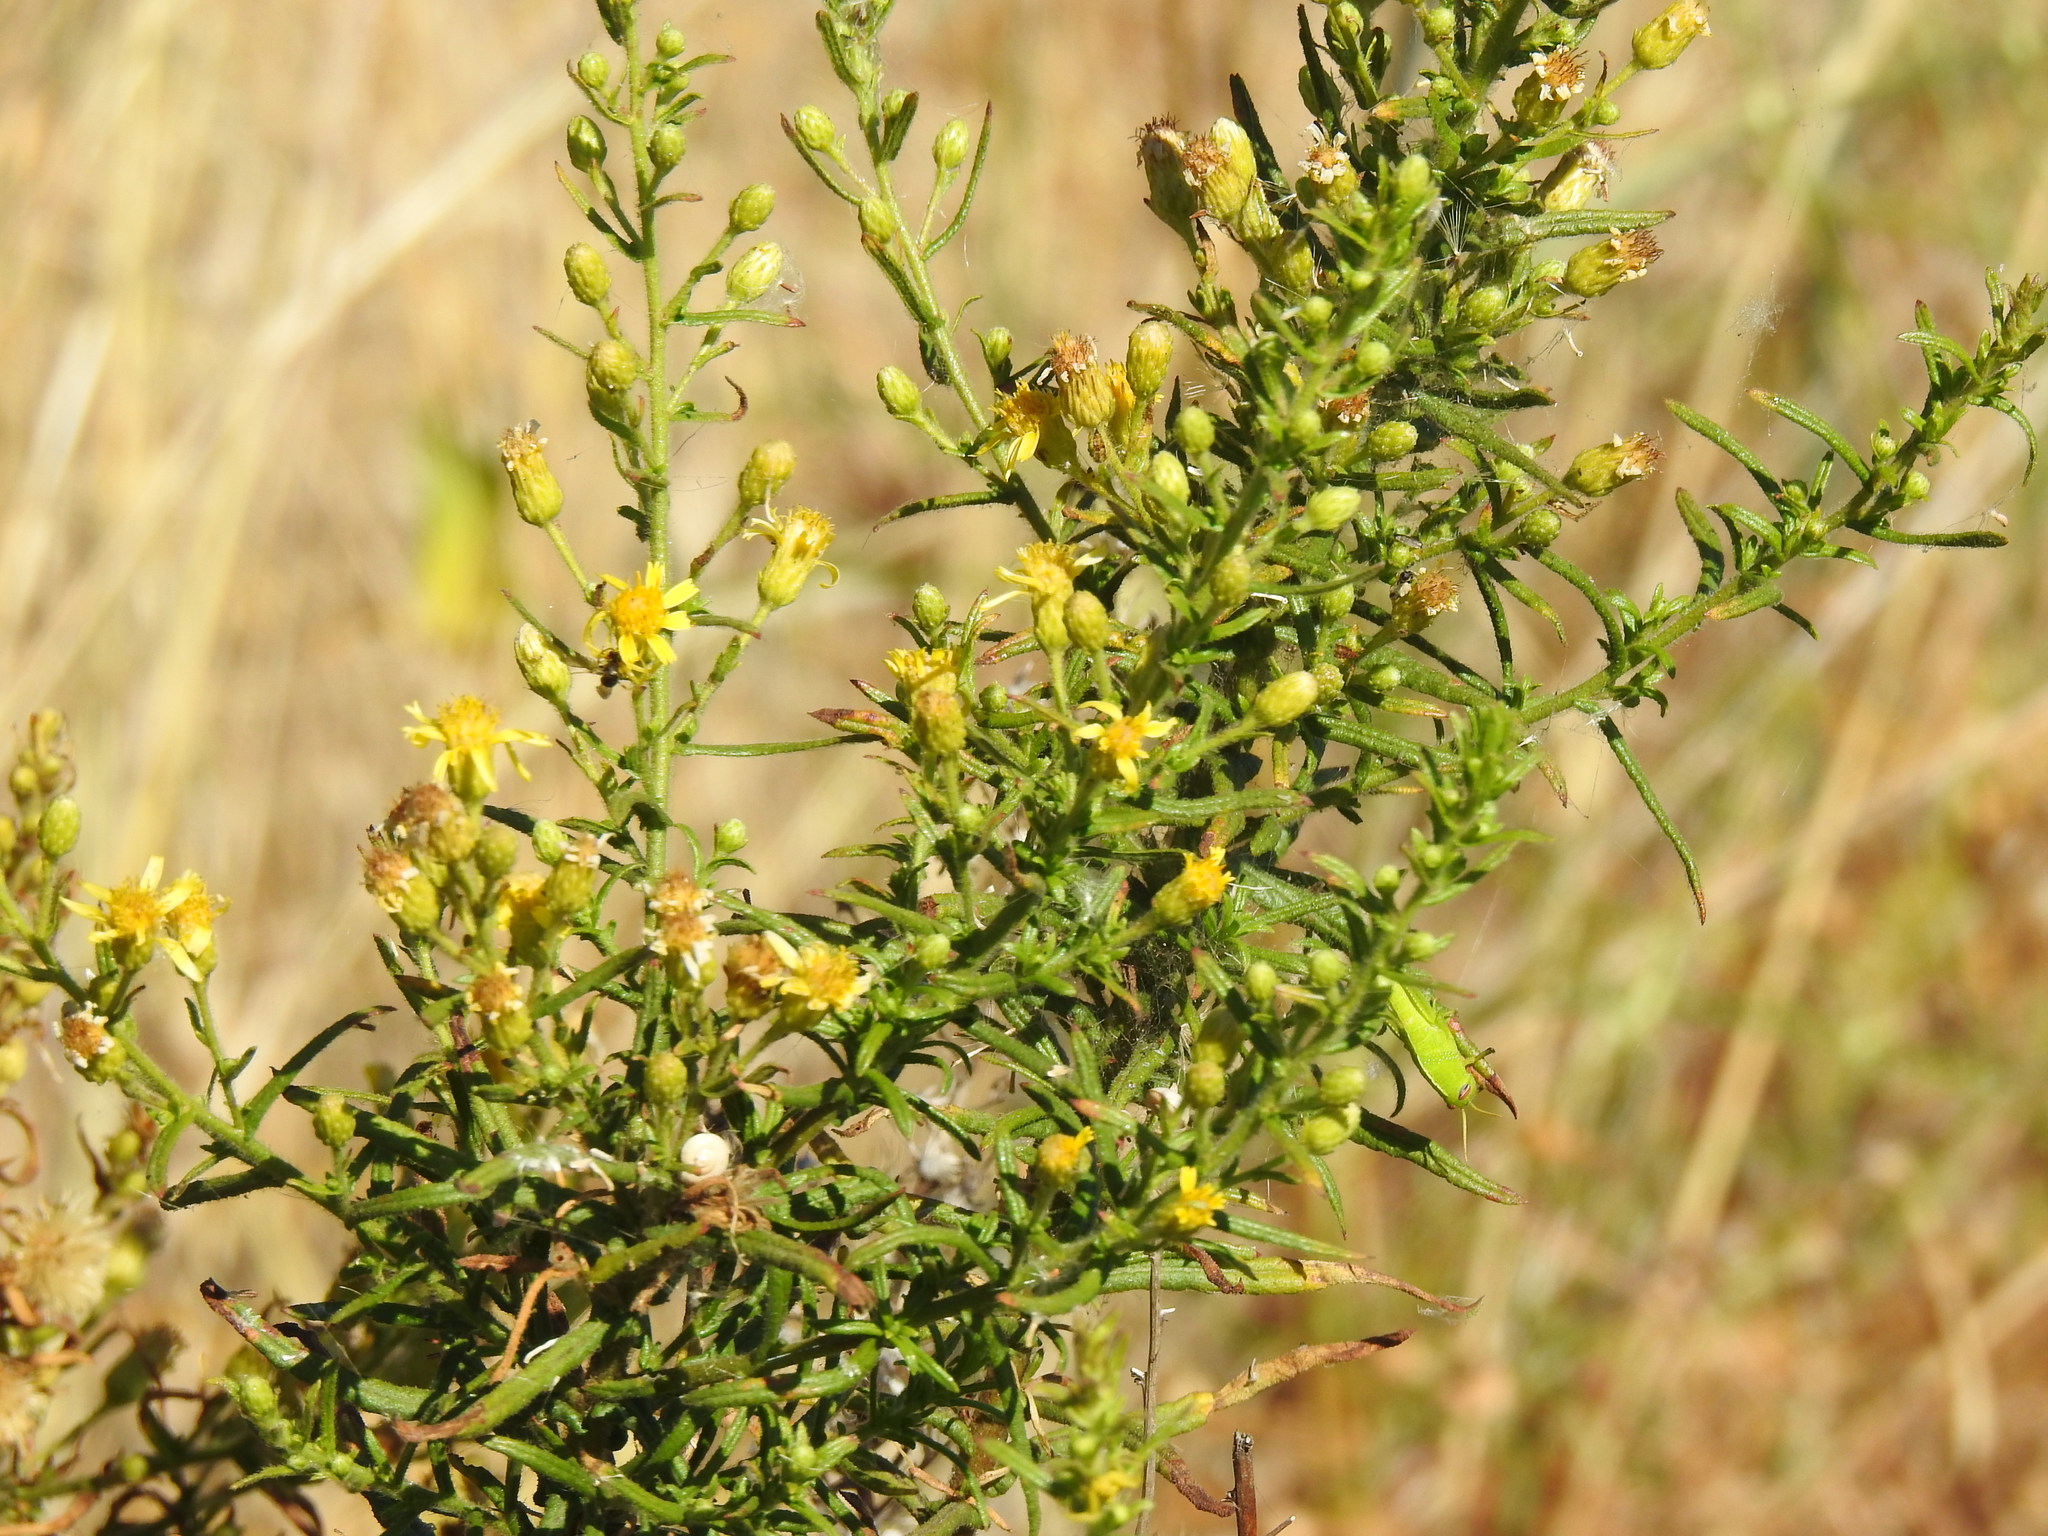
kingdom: Plantae
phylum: Tracheophyta
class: Magnoliopsida
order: Asterales
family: Asteraceae
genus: Dittrichia
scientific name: Dittrichia viscosa
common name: Woody fleabane
